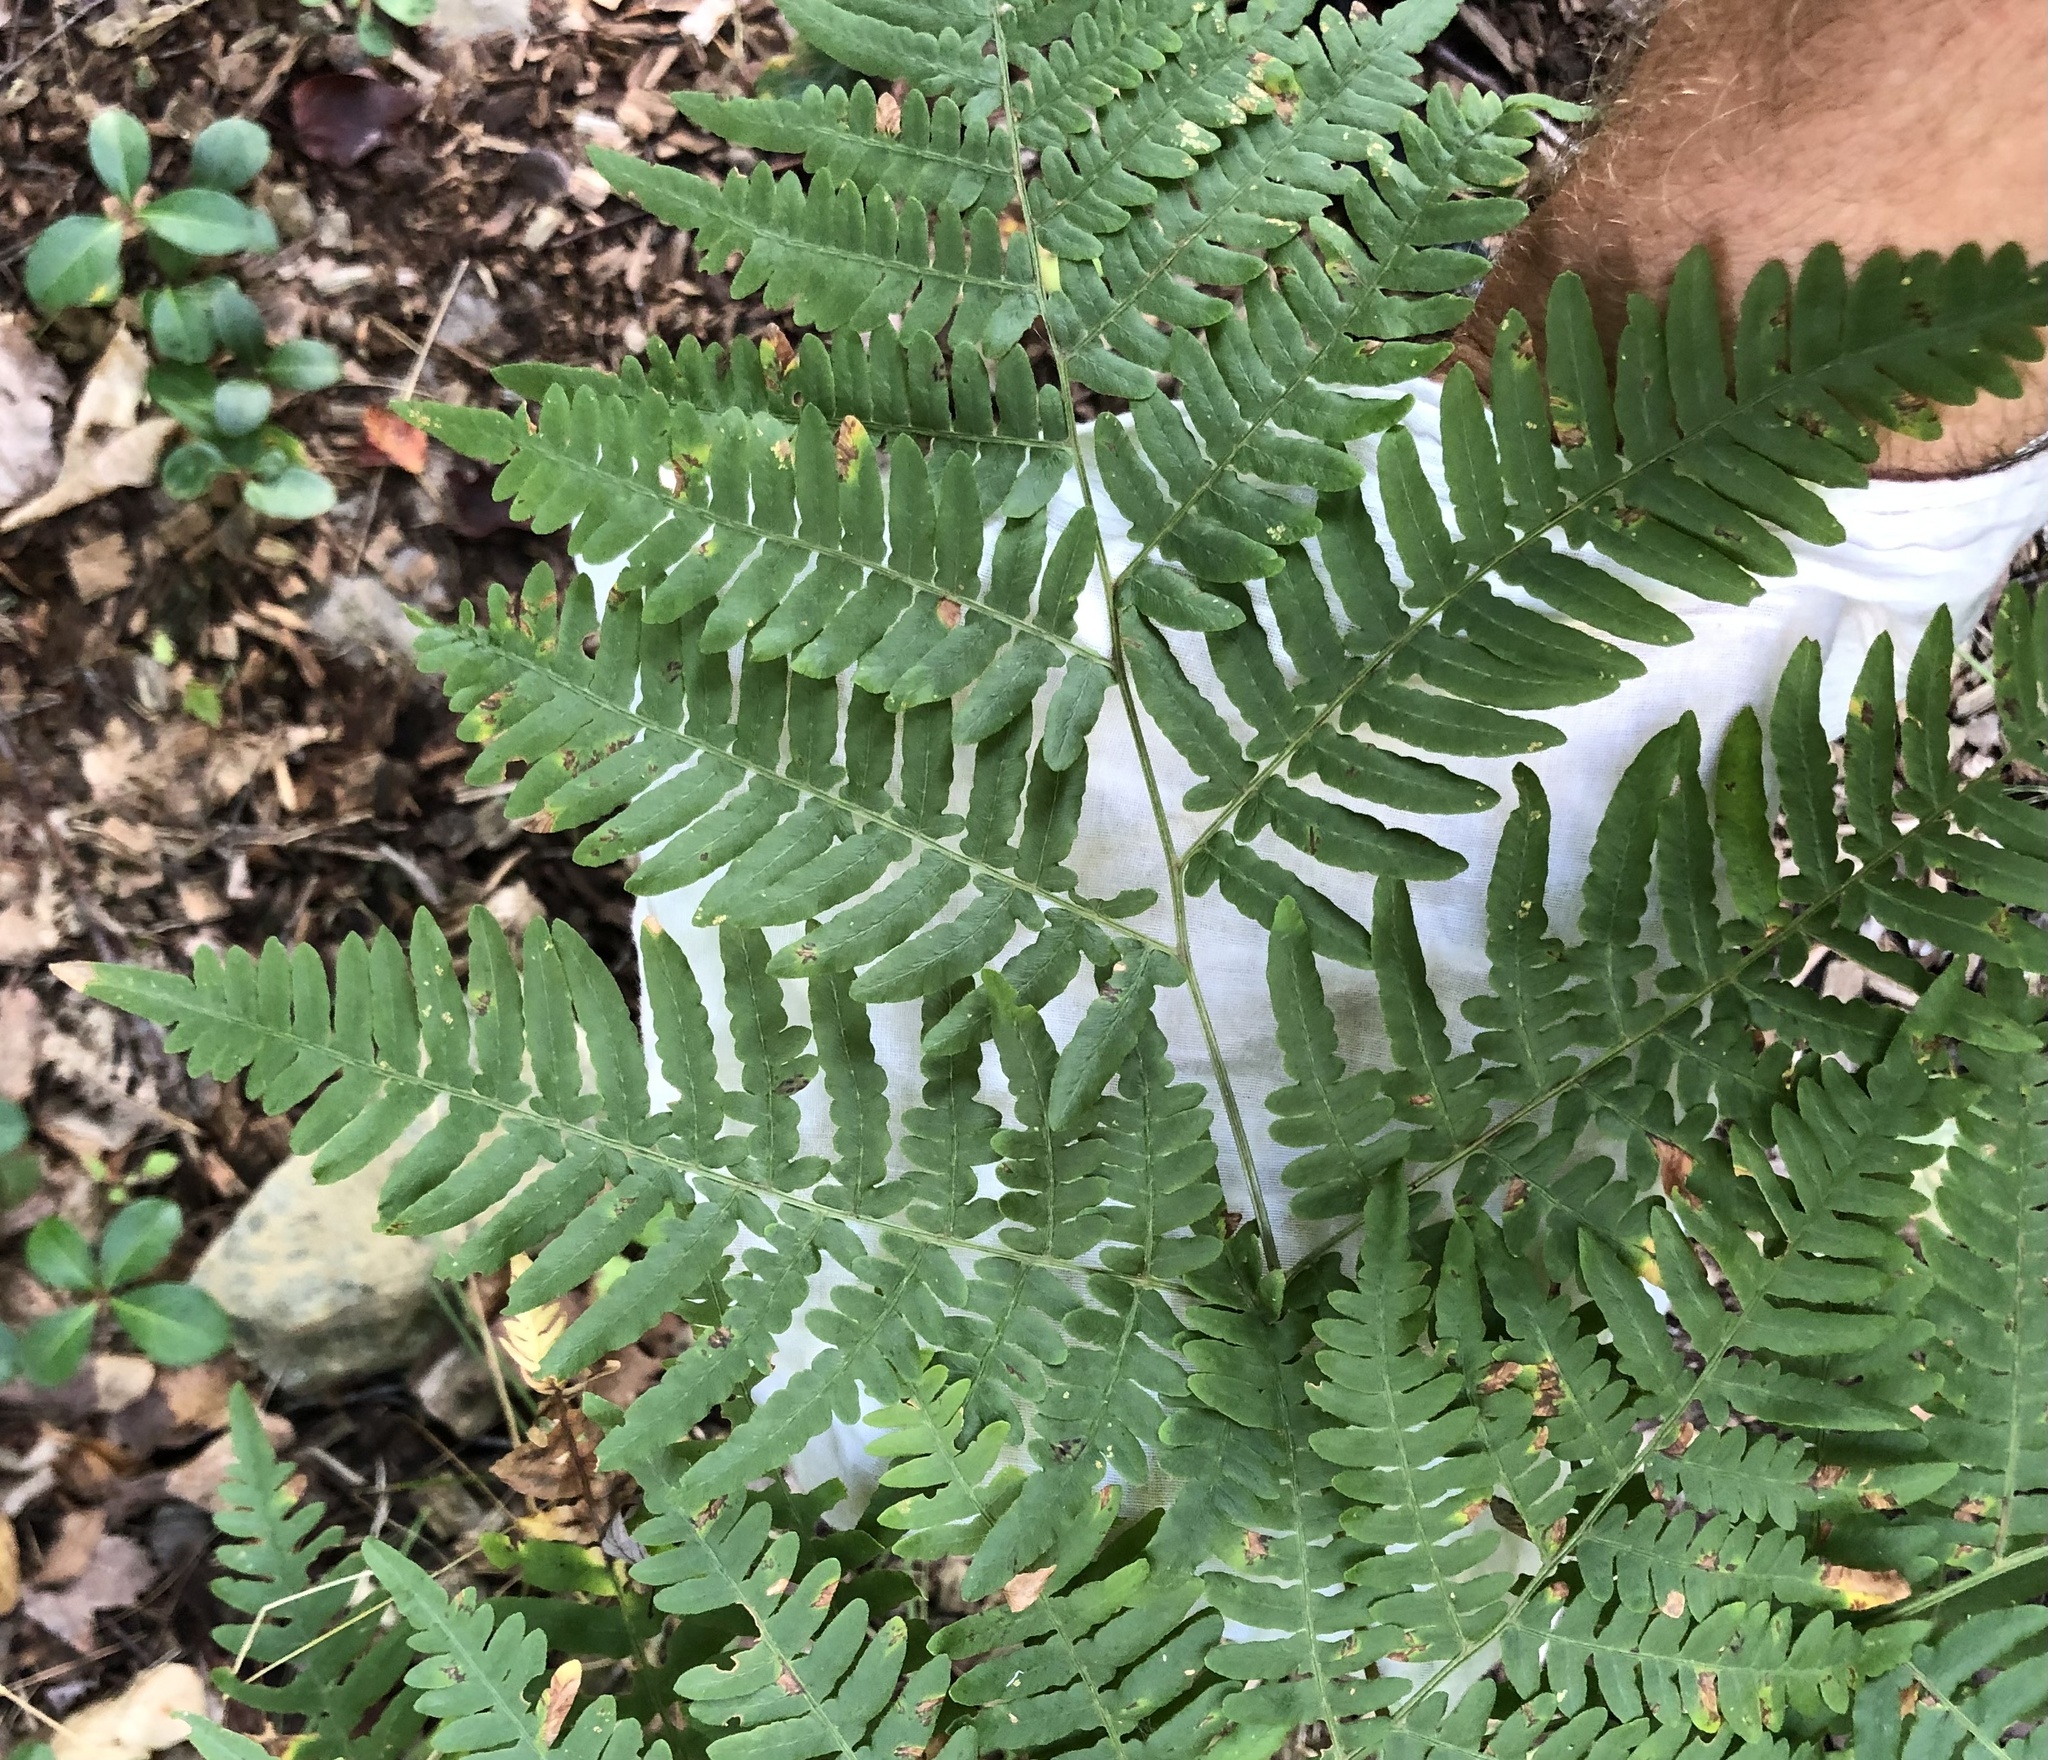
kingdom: Plantae
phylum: Tracheophyta
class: Polypodiopsida
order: Polypodiales
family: Dennstaedtiaceae
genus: Pteridium
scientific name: Pteridium aquilinum
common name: Bracken
